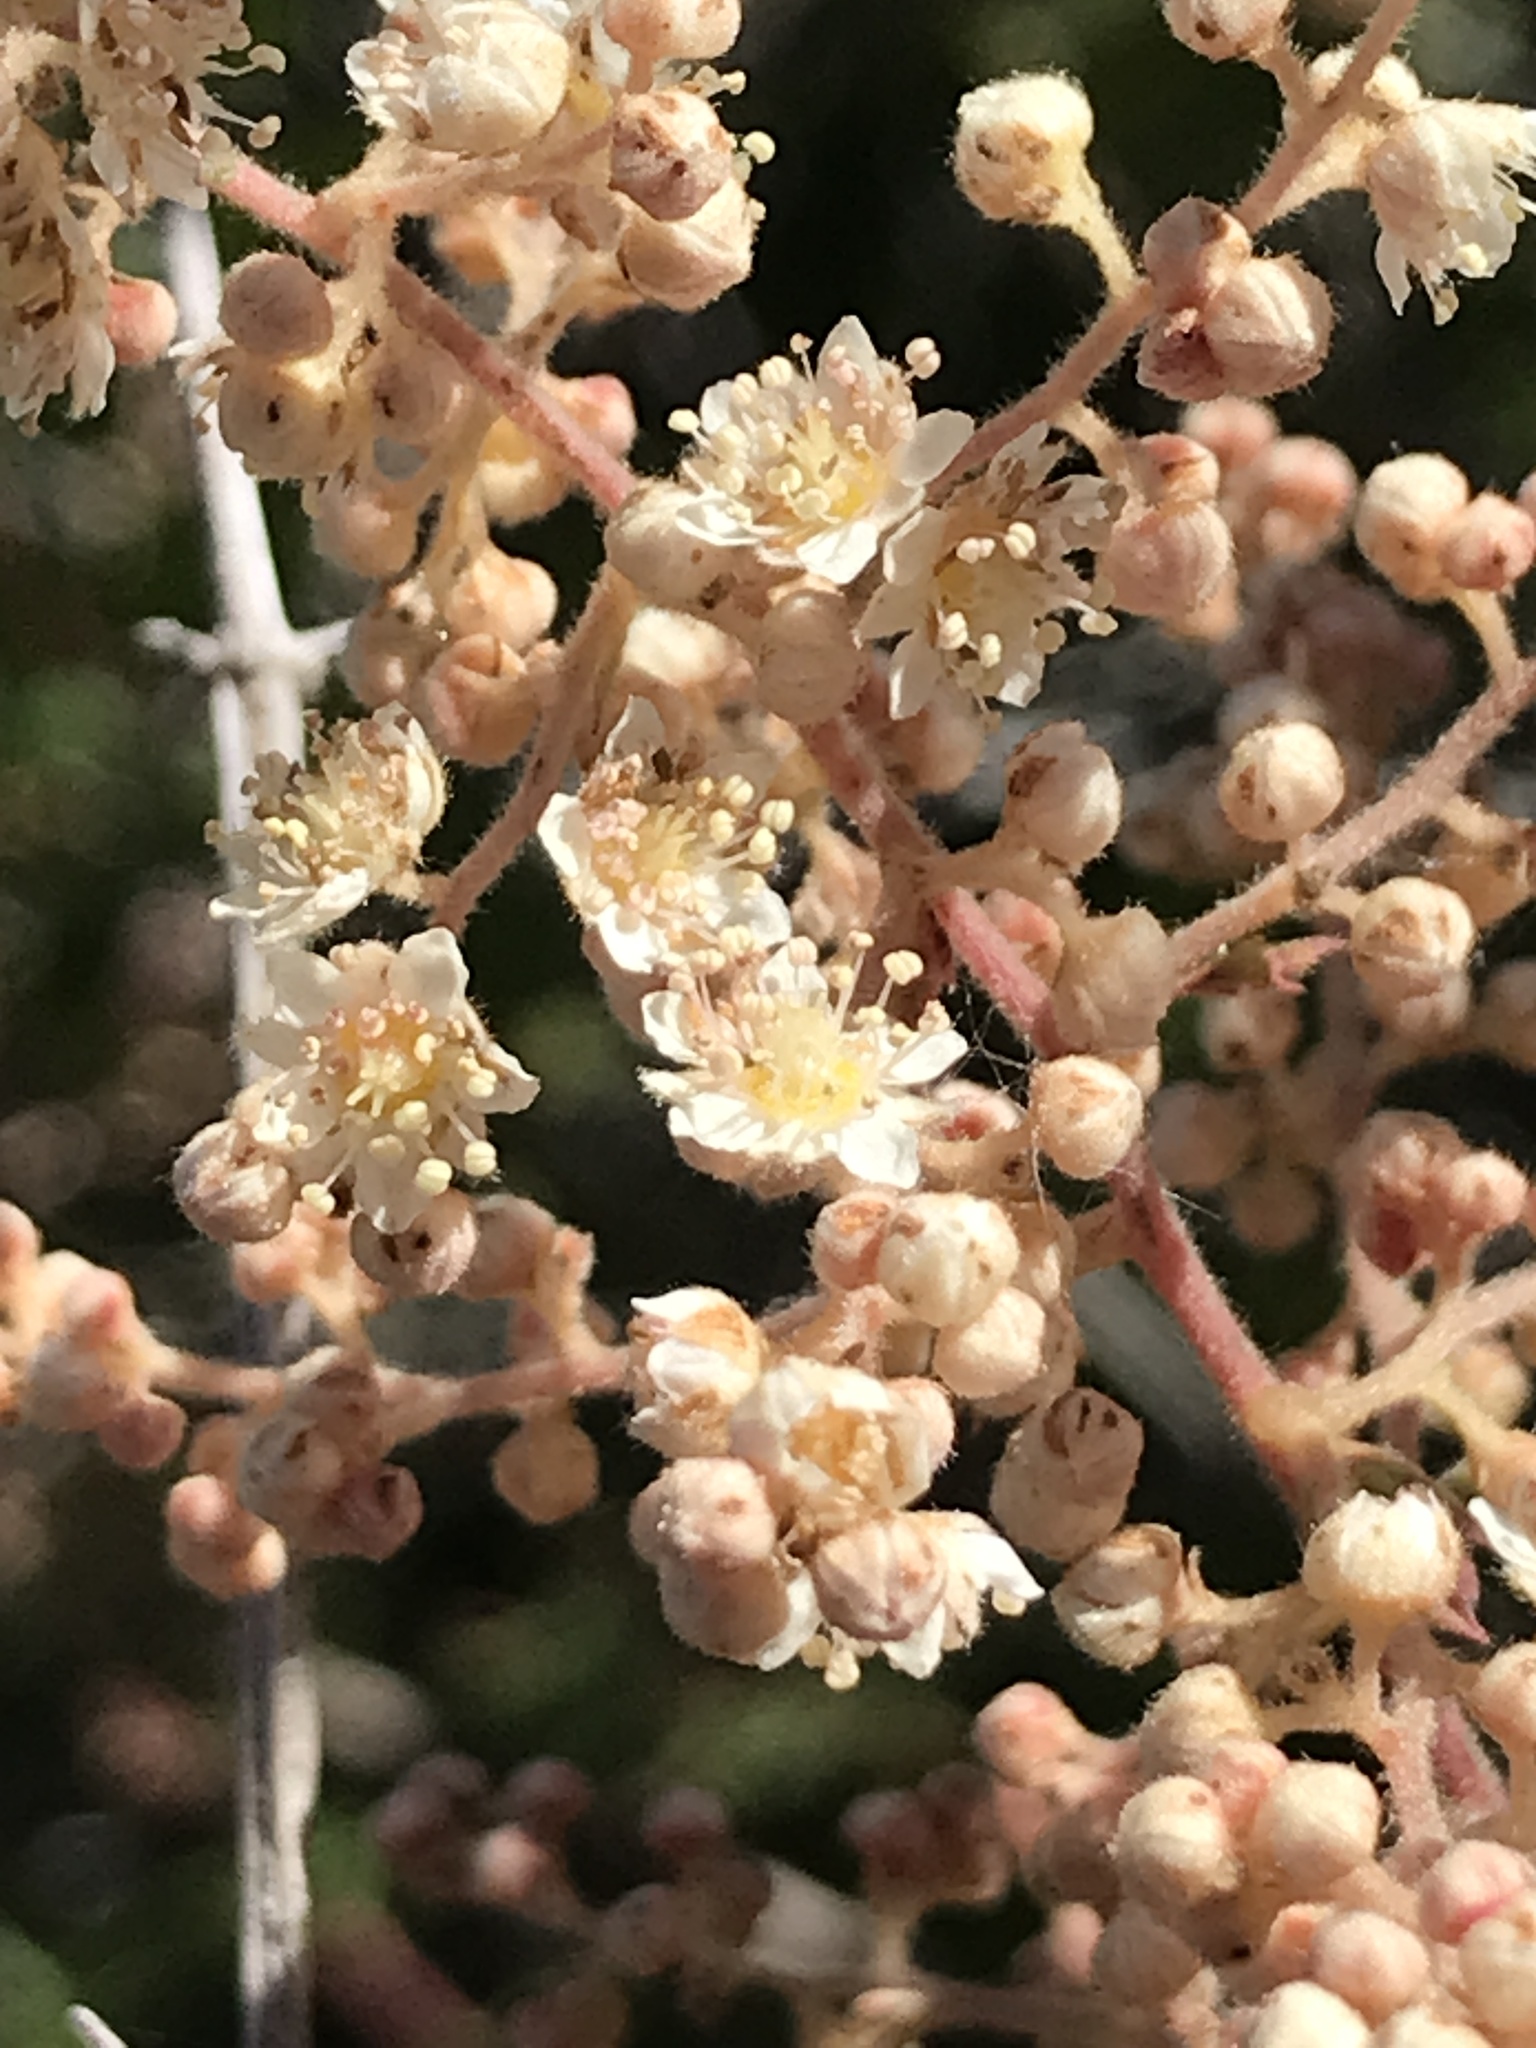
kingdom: Plantae
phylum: Tracheophyta
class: Magnoliopsida
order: Rosales
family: Rosaceae
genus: Holodiscus
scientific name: Holodiscus discolor
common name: Oceanspray
